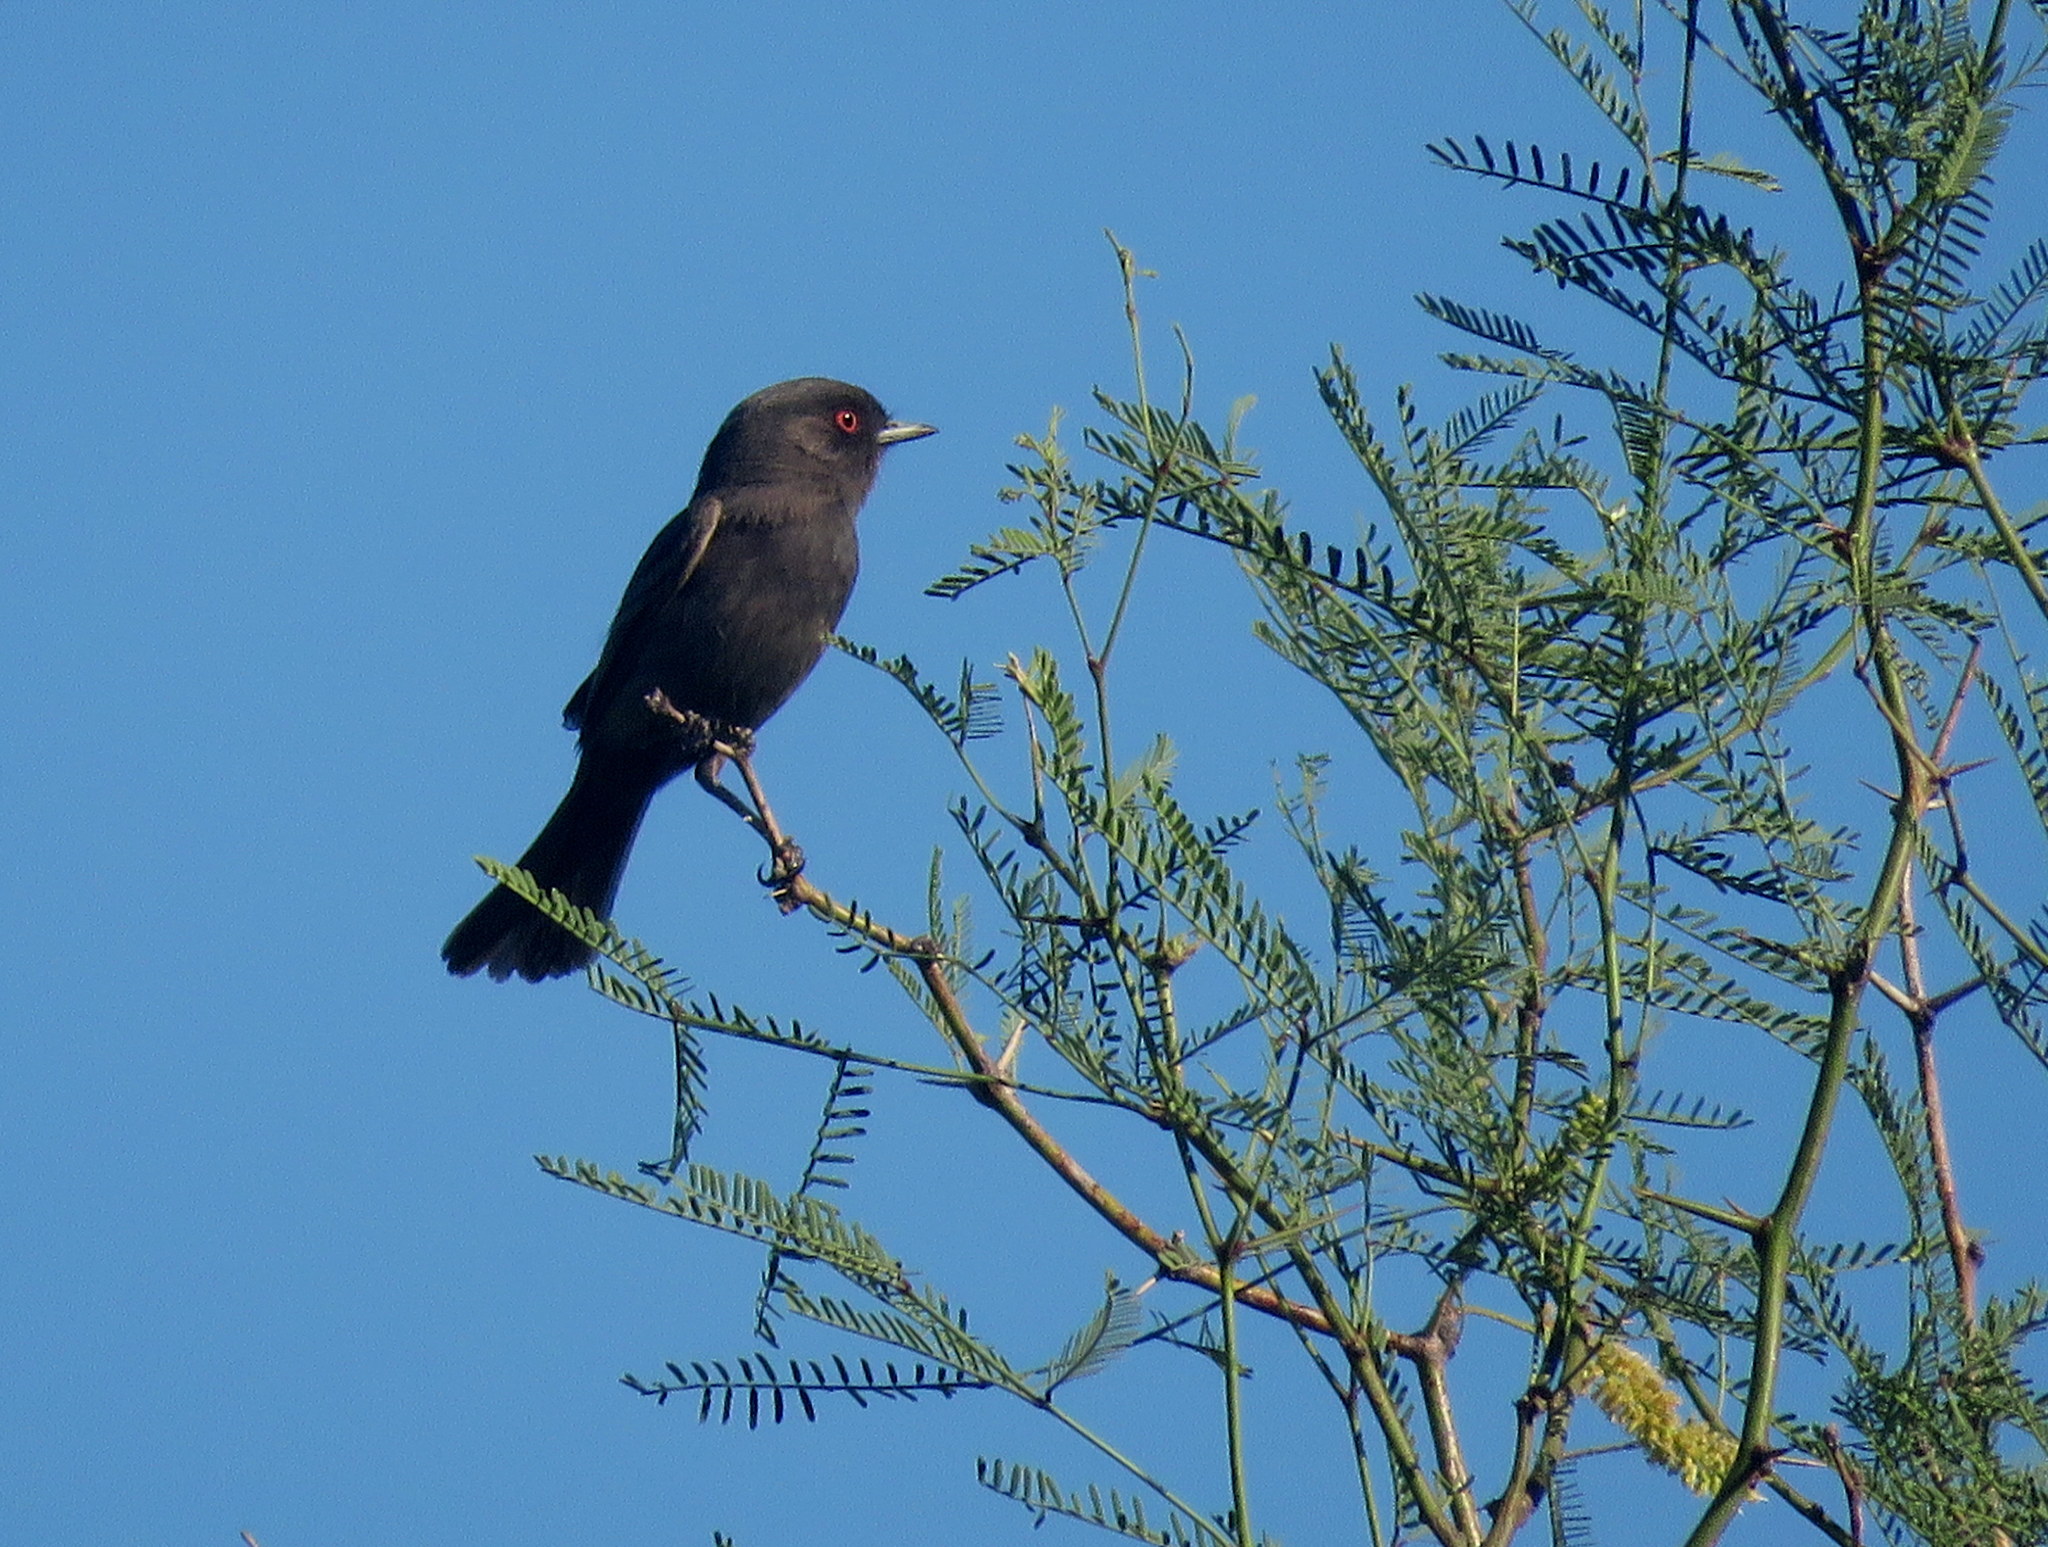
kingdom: Animalia
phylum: Chordata
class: Aves
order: Passeriformes
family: Tyrannidae
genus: Knipolegus
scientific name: Knipolegus striaticeps
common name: Cinereous tyrant
